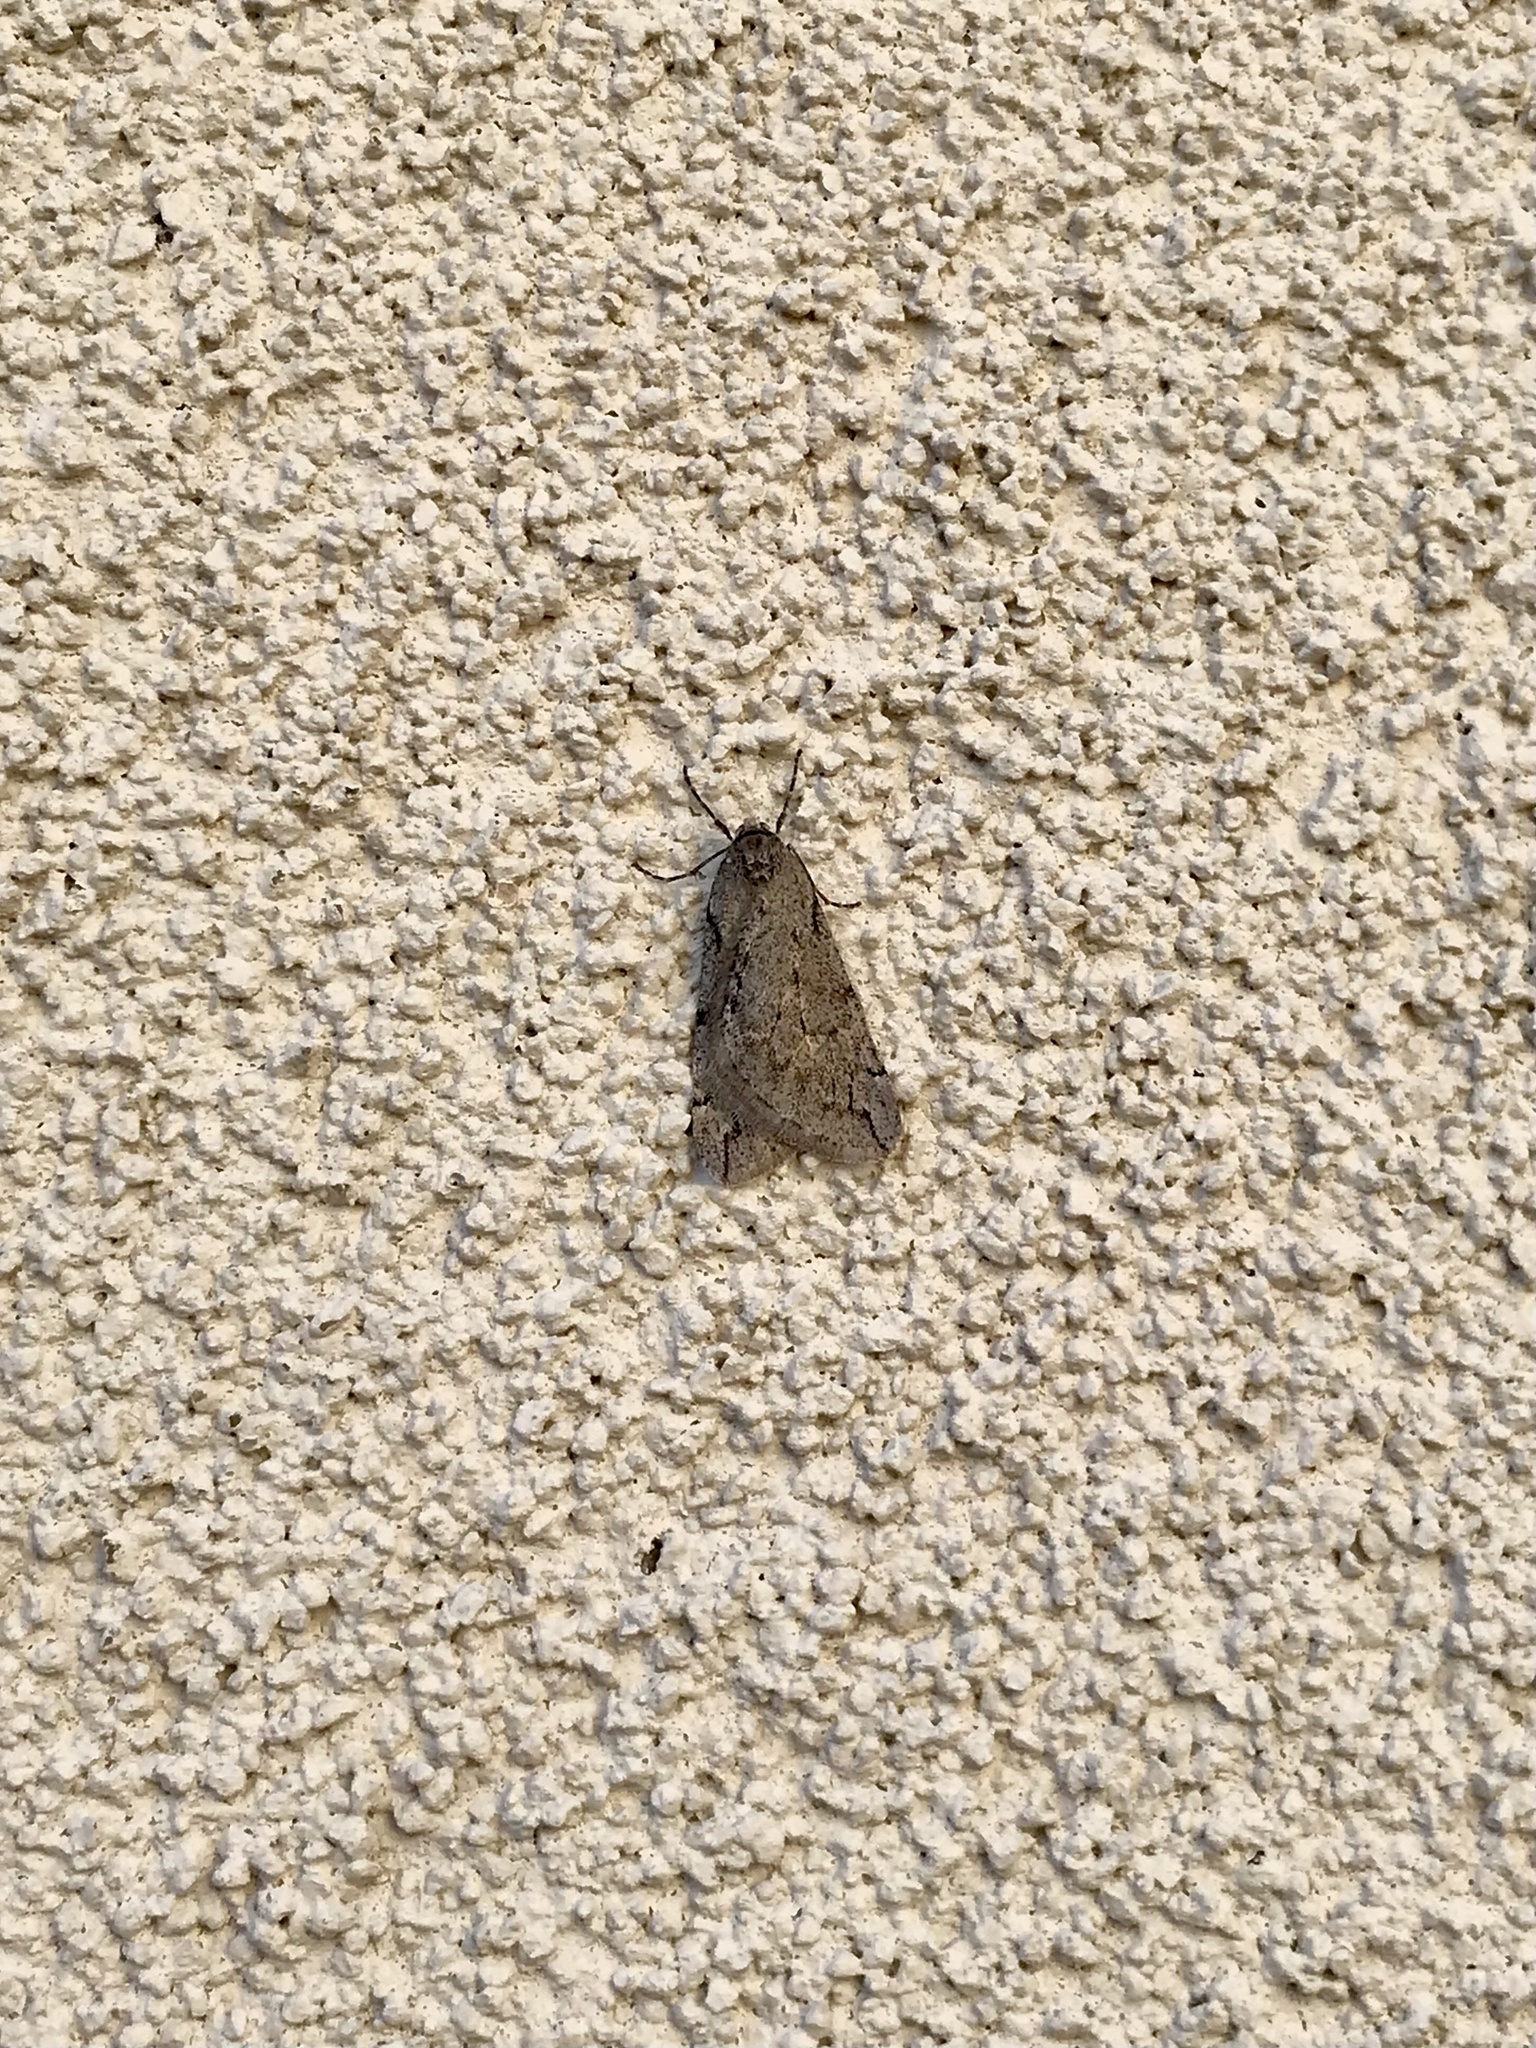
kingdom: Animalia
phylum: Arthropoda
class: Insecta
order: Lepidoptera
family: Geometridae
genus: Paleacrita
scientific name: Paleacrita vernata
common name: Spring cankerworm
